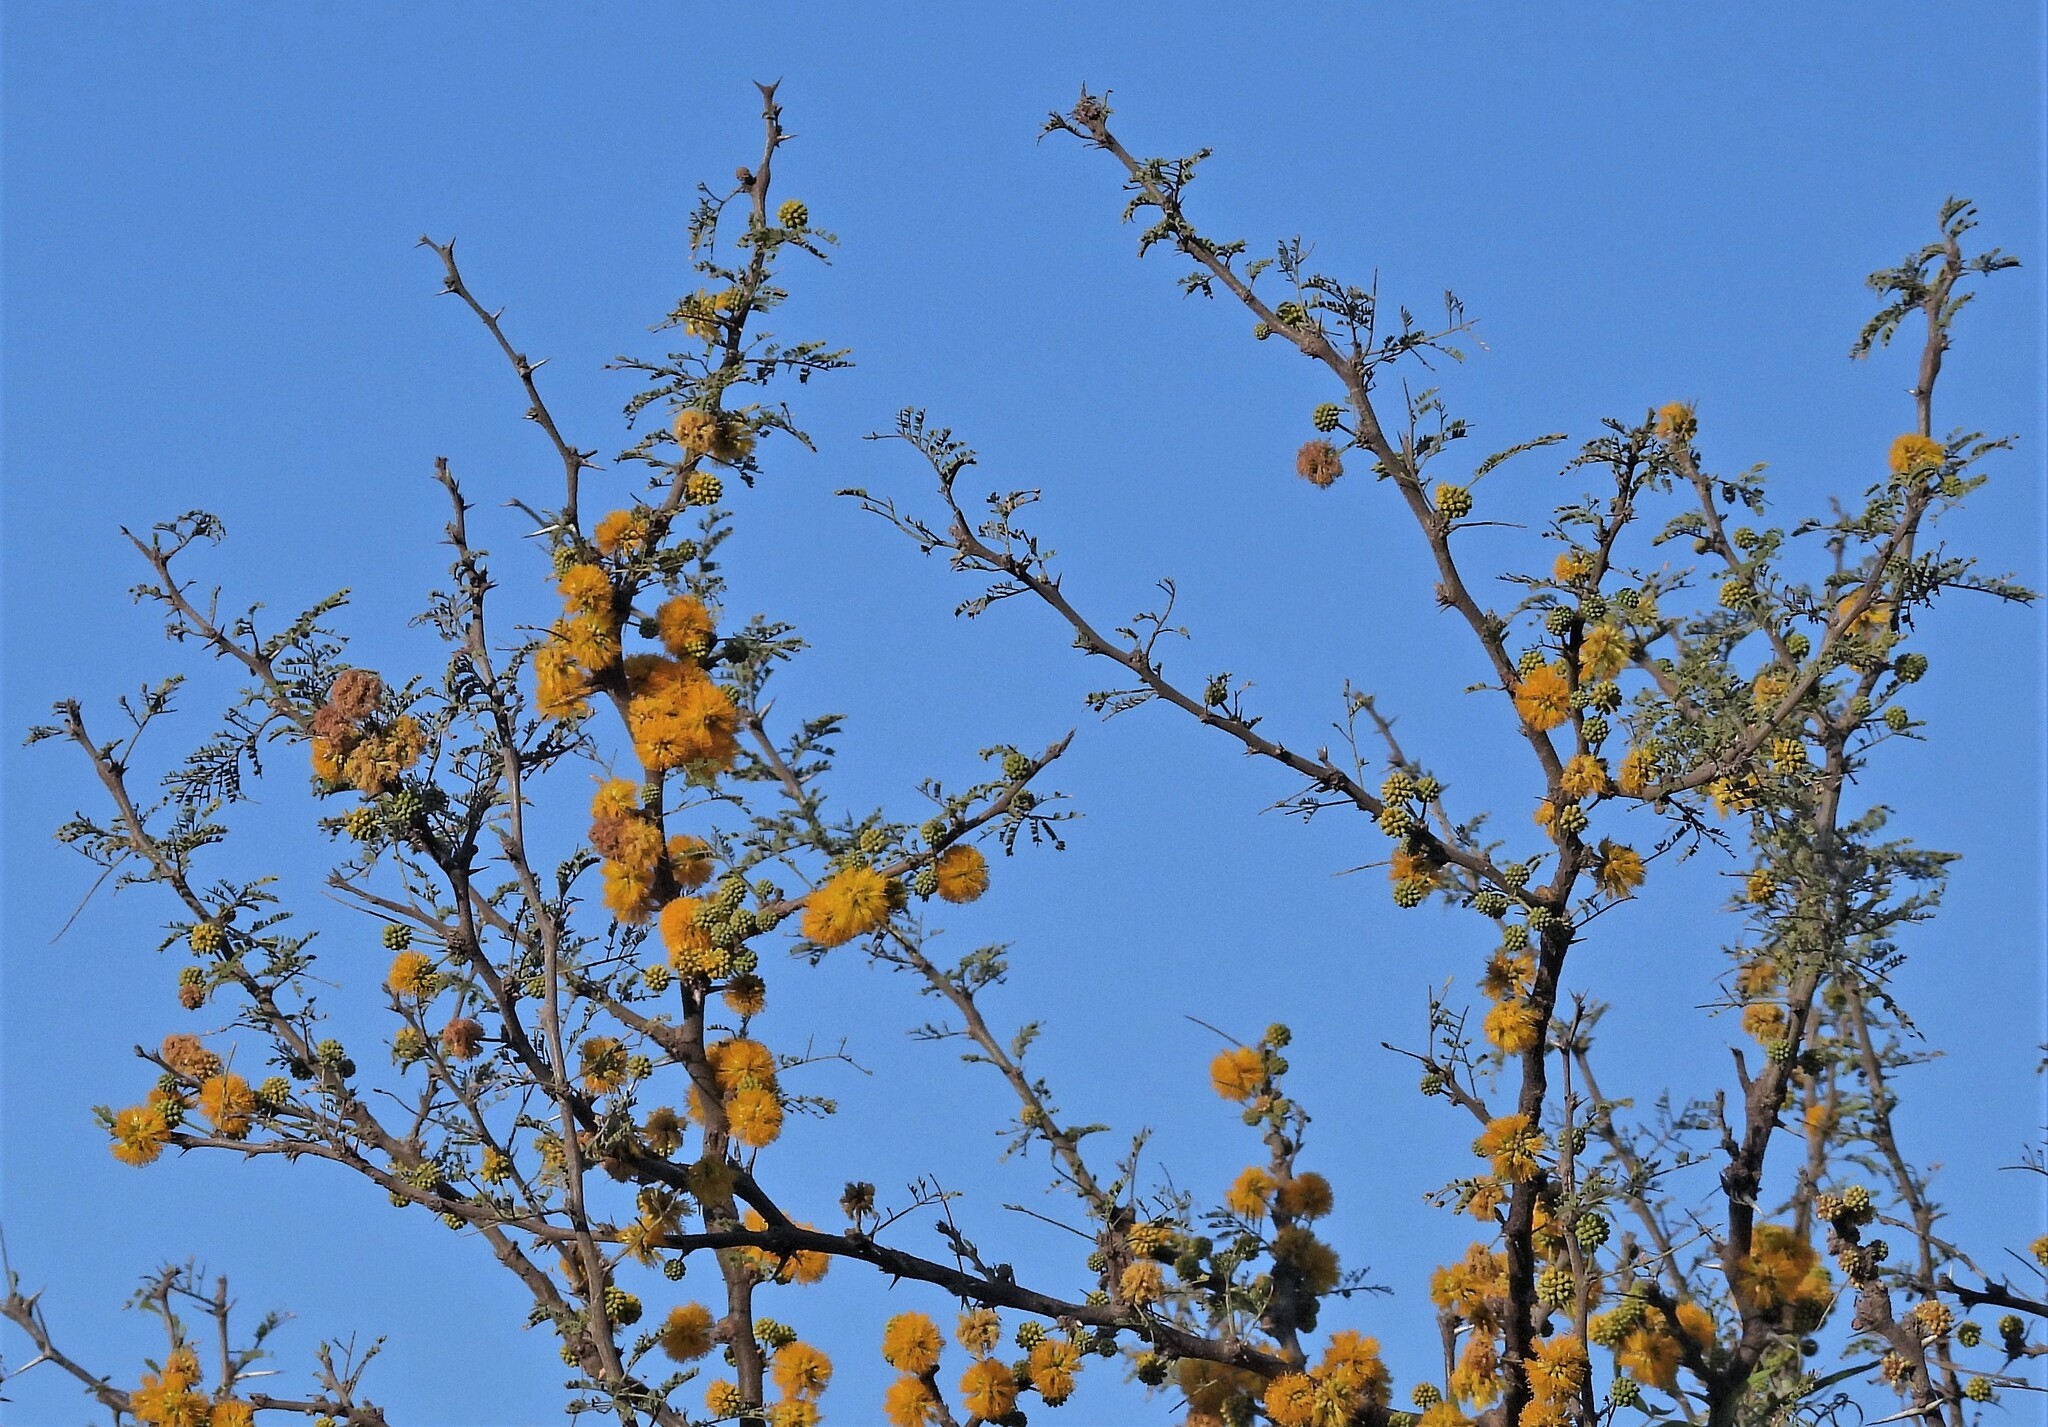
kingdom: Plantae
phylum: Tracheophyta
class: Magnoliopsida
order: Fabales
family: Fabaceae
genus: Vachellia
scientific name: Vachellia caven
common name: Roman cassie
